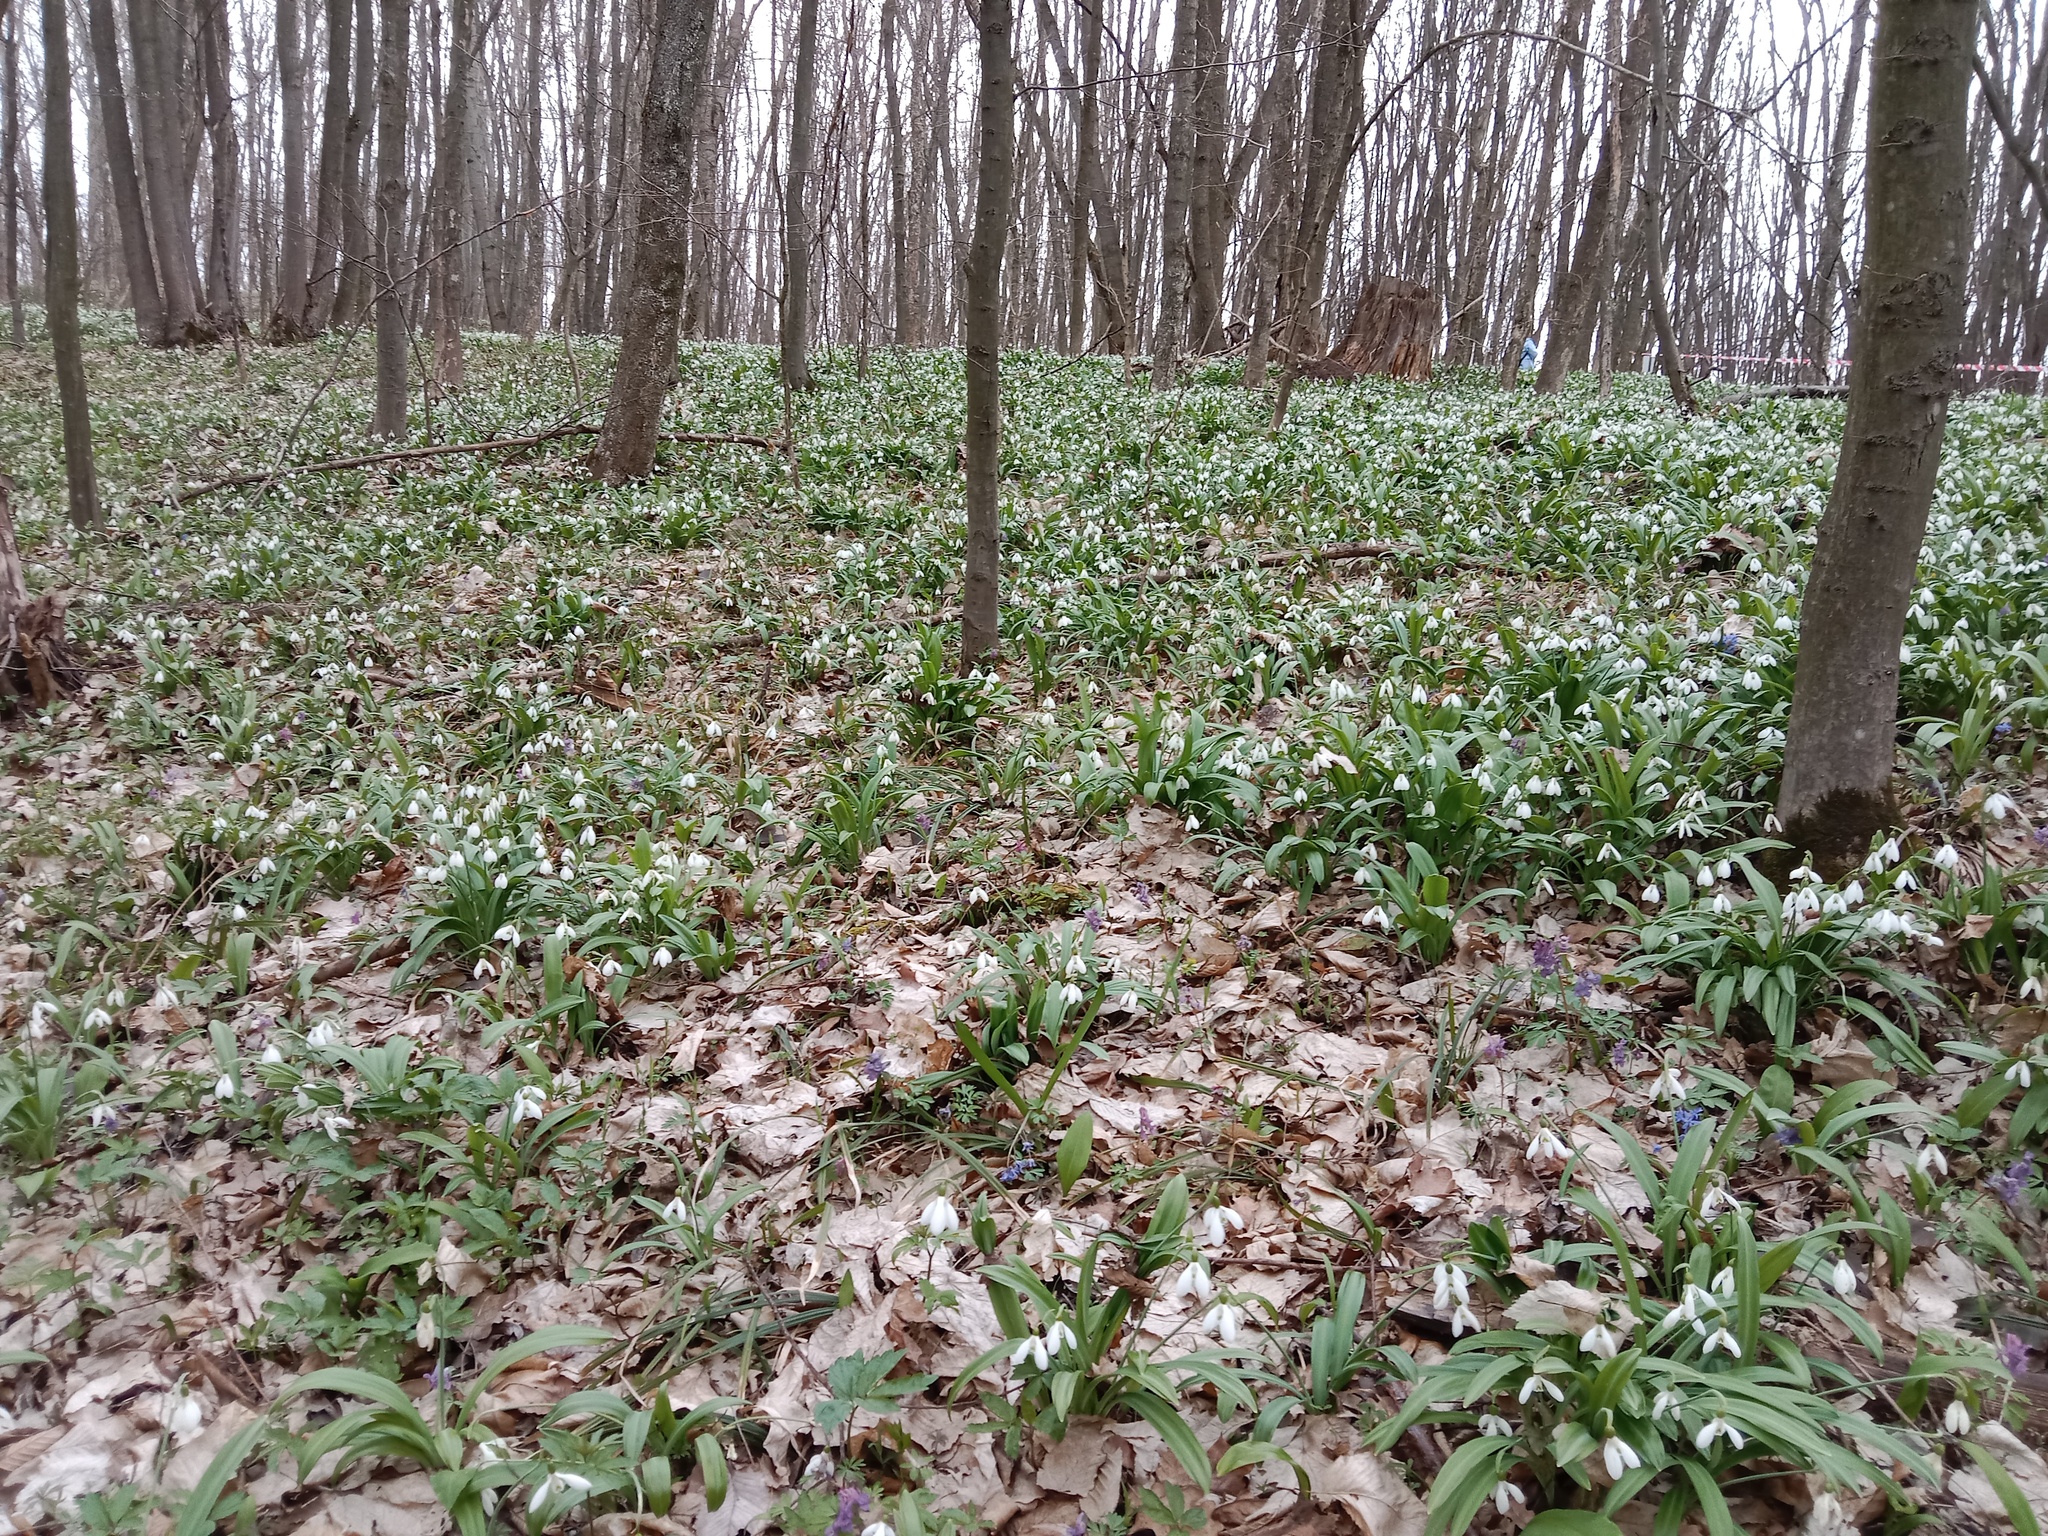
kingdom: Plantae
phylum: Tracheophyta
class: Liliopsida
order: Asparagales
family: Amaryllidaceae
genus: Galanthus
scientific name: Galanthus plicatus
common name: Pleated snowdrop
